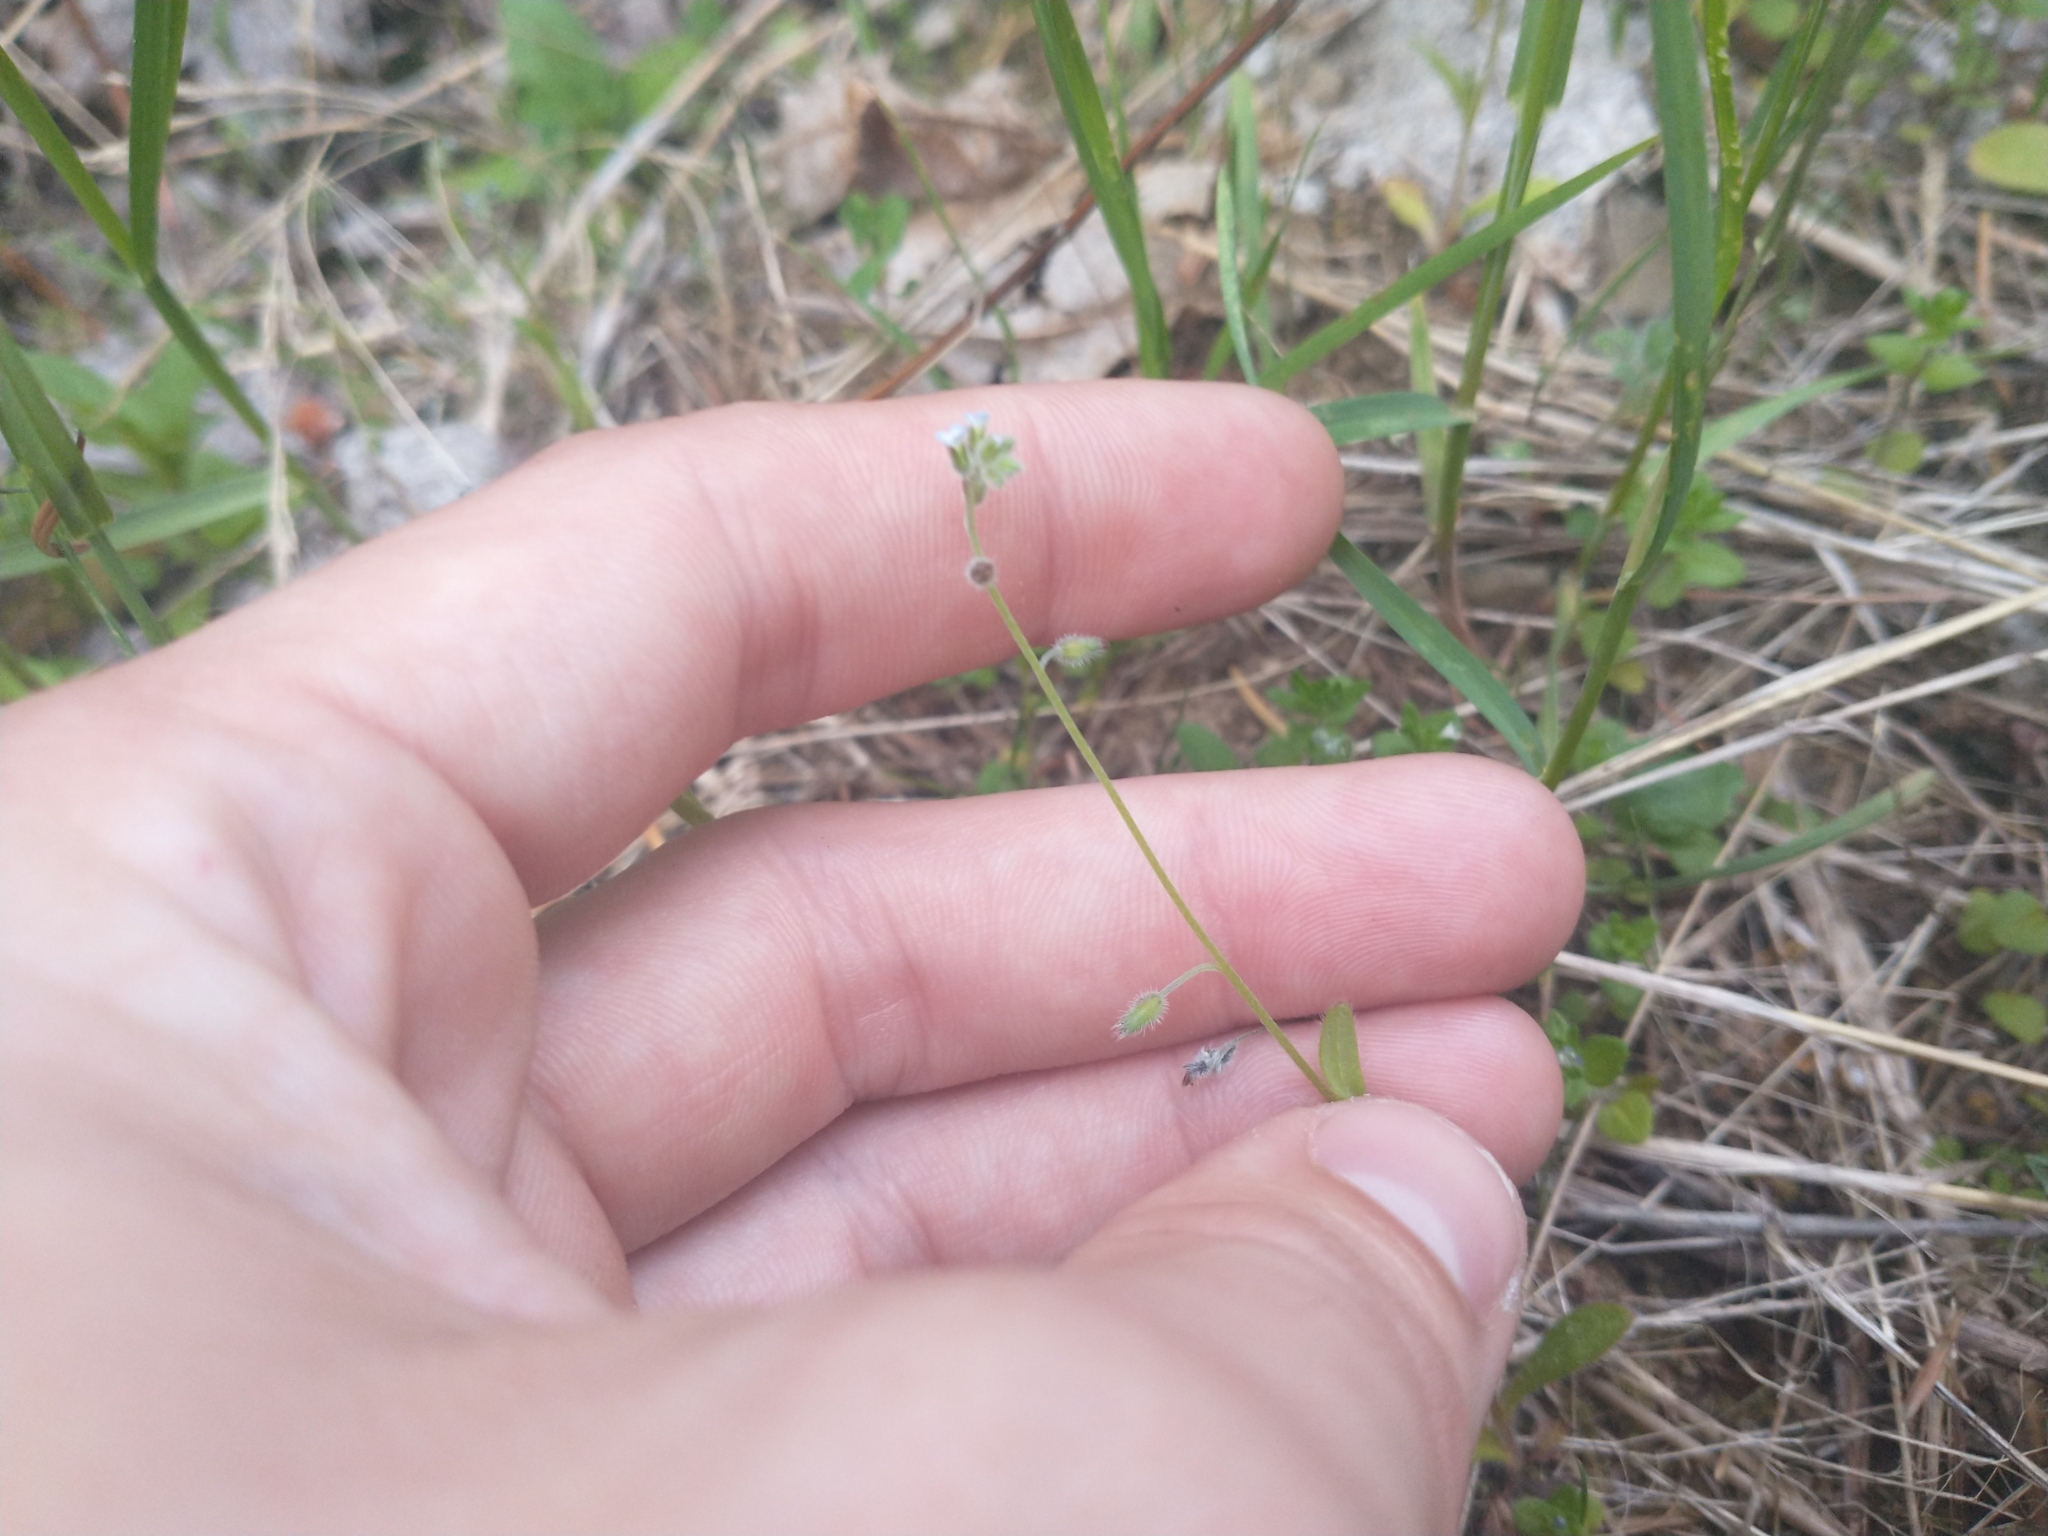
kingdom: Plantae
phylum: Tracheophyta
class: Magnoliopsida
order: Boraginales
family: Boraginaceae
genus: Myosotis
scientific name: Myosotis ramosissima
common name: Early forget-me-not
